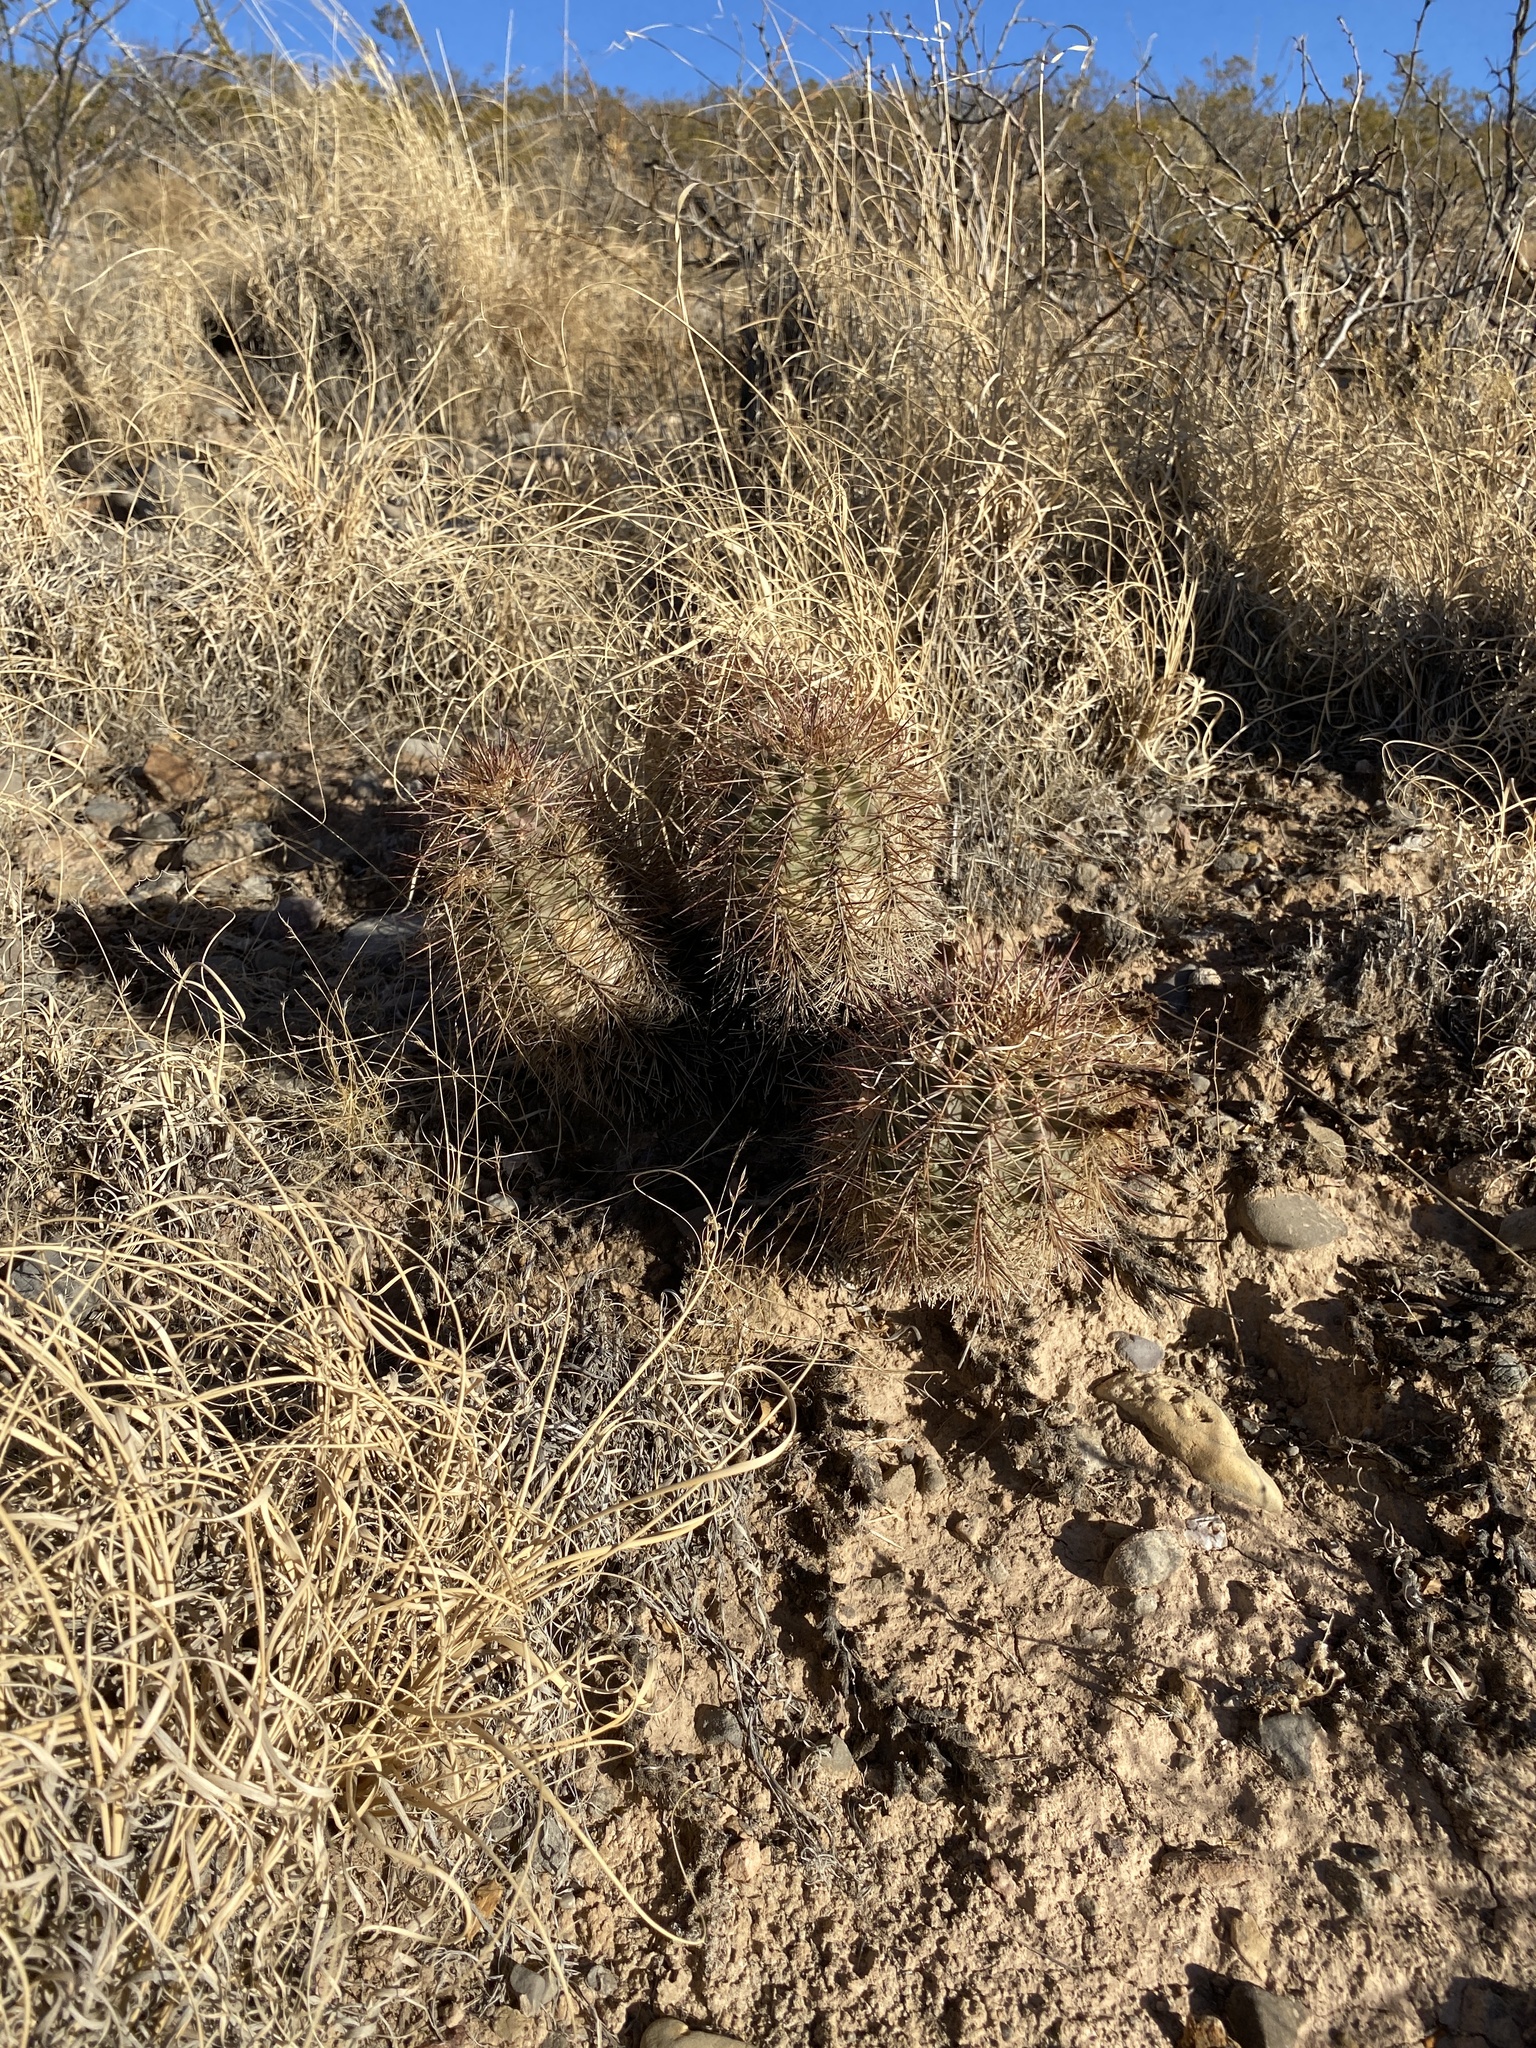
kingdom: Plantae
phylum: Tracheophyta
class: Magnoliopsida
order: Caryophyllales
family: Cactaceae
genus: Echinocereus
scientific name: Echinocereus coccineus
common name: Scarlet hedgehog cactus
